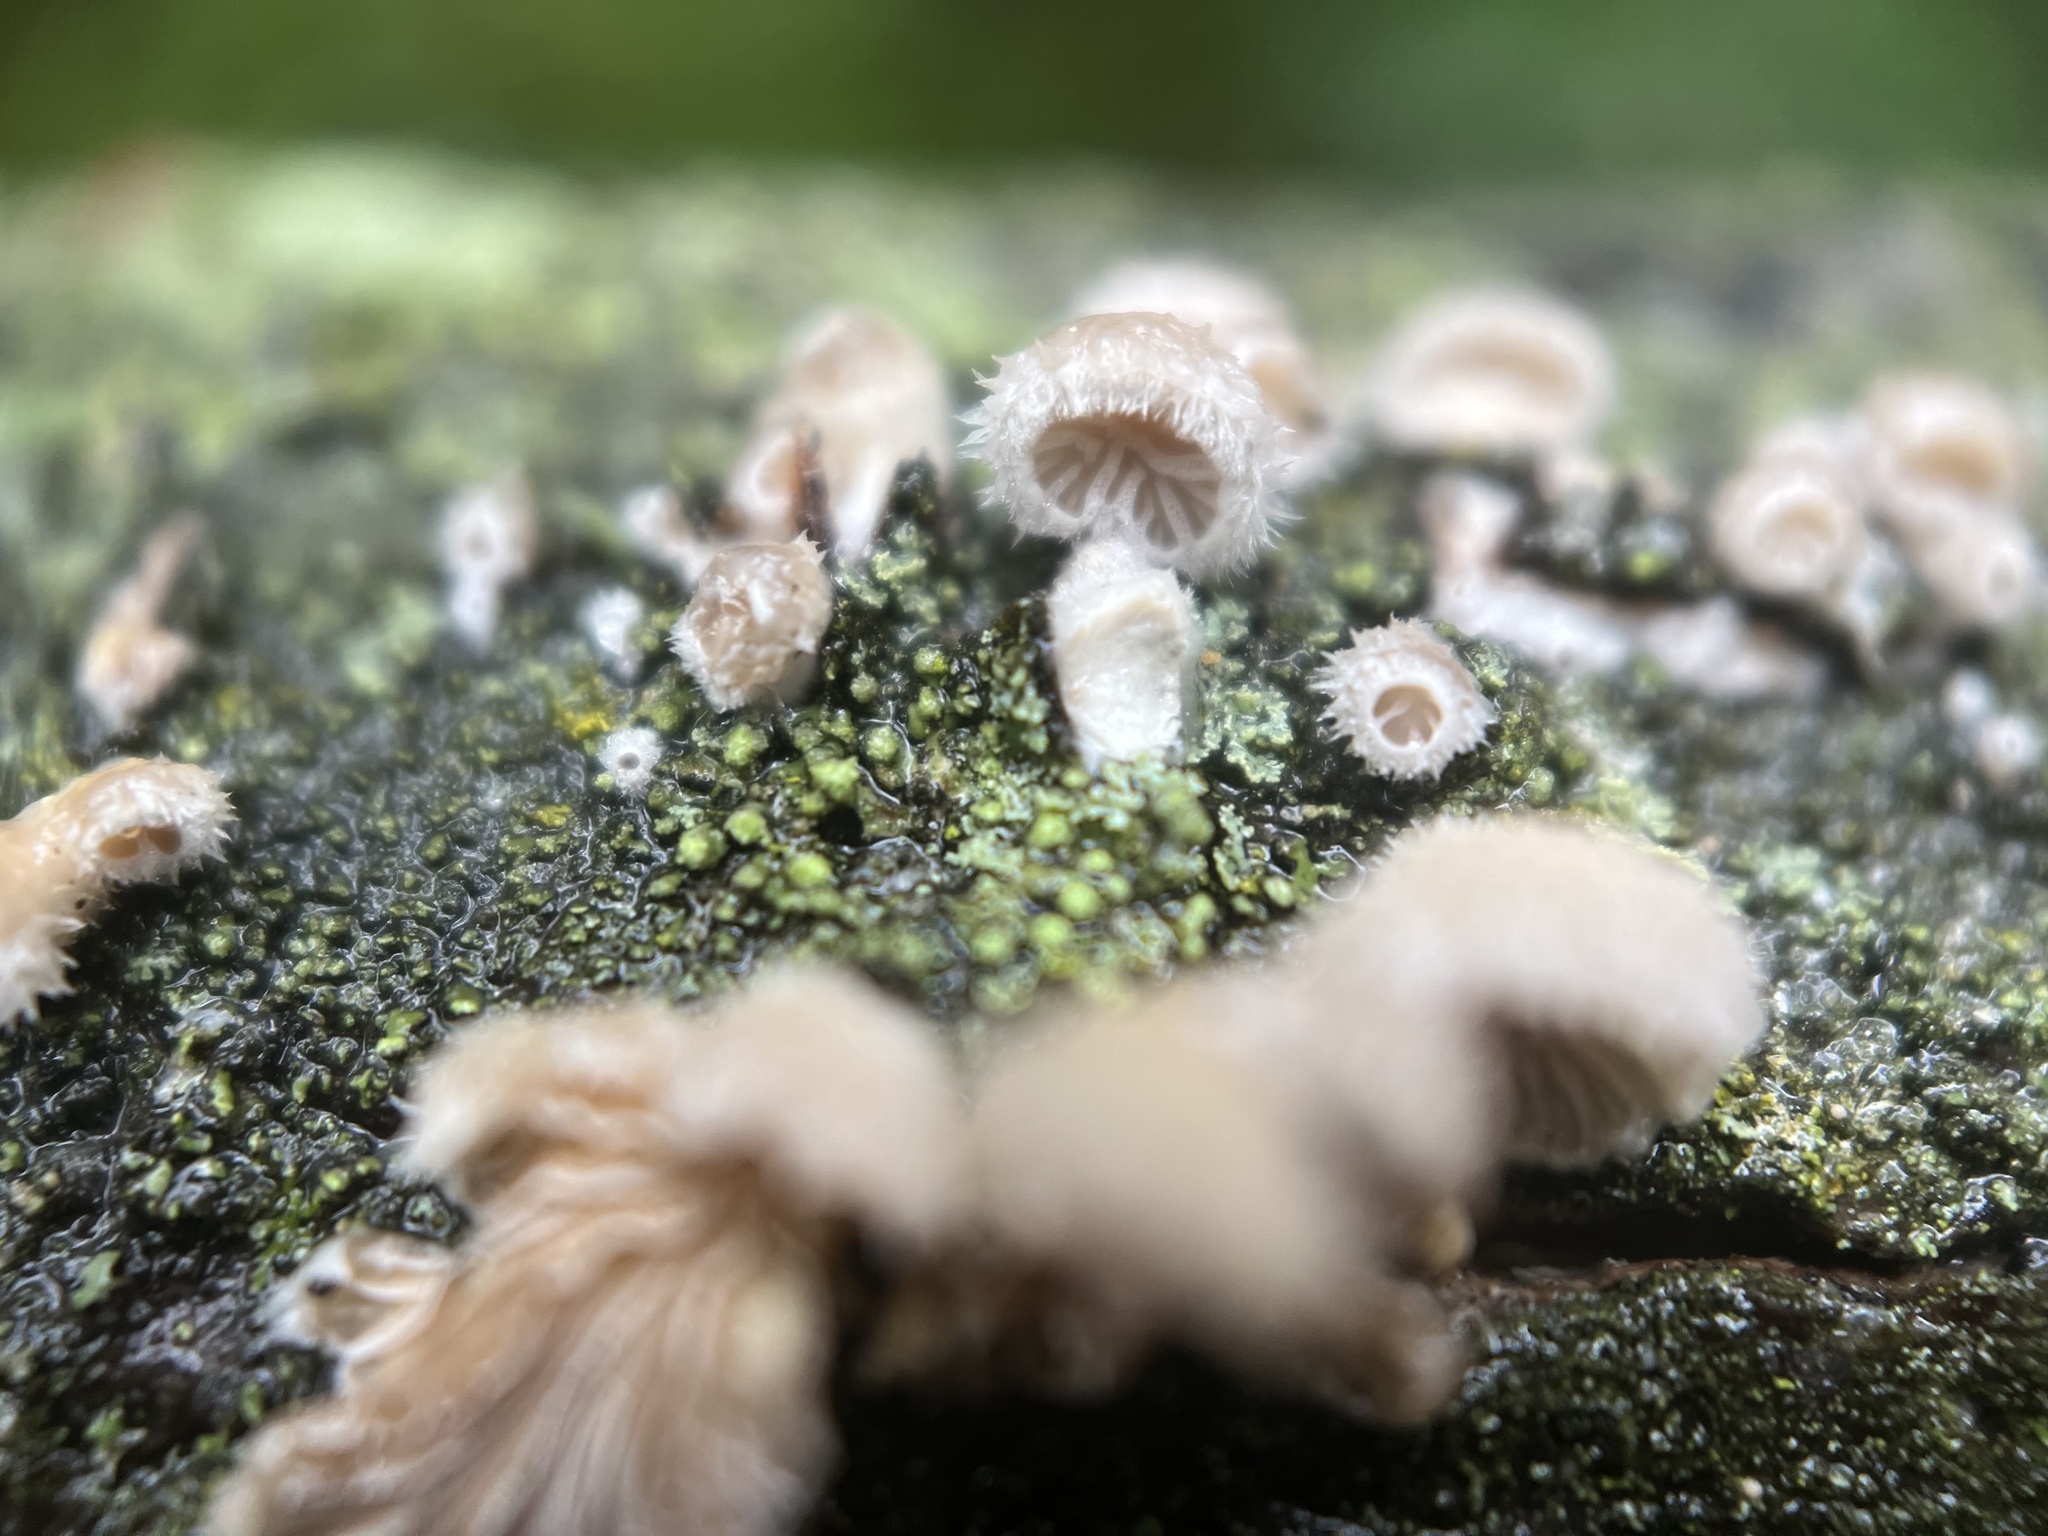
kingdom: Fungi
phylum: Basidiomycota
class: Agaricomycetes
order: Agaricales
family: Schizophyllaceae
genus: Schizophyllum
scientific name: Schizophyllum commune
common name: Common porecrust
